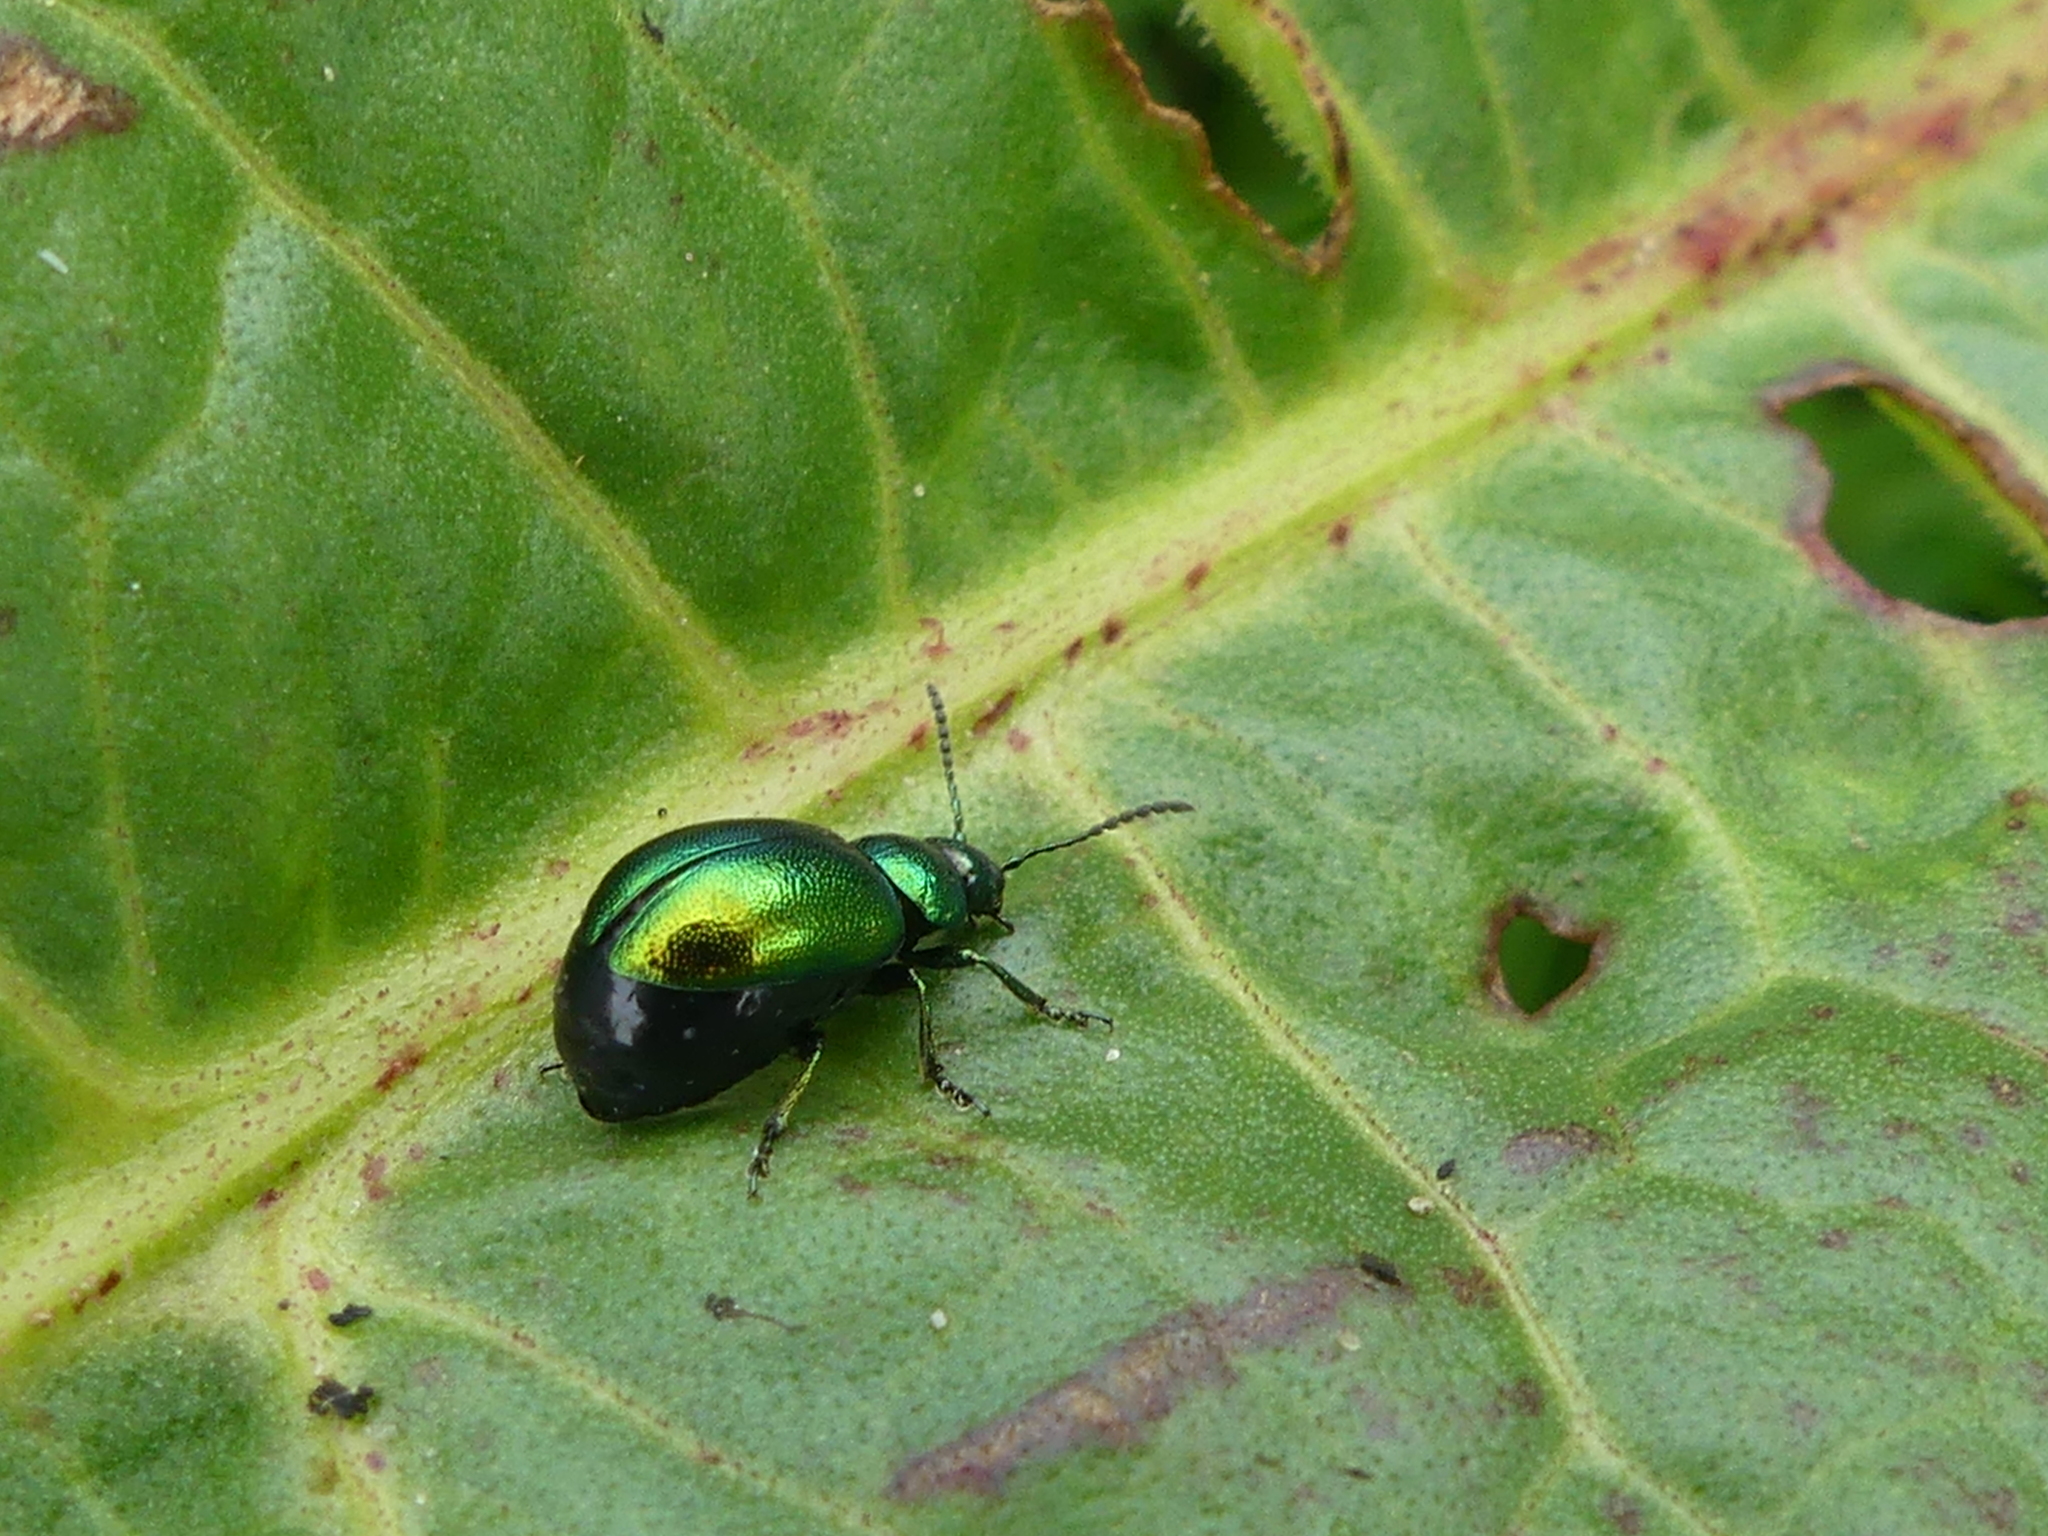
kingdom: Animalia
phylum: Arthropoda
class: Insecta
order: Coleoptera
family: Chrysomelidae
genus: Gastrophysa
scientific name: Gastrophysa viridula
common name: Green dock beetle
